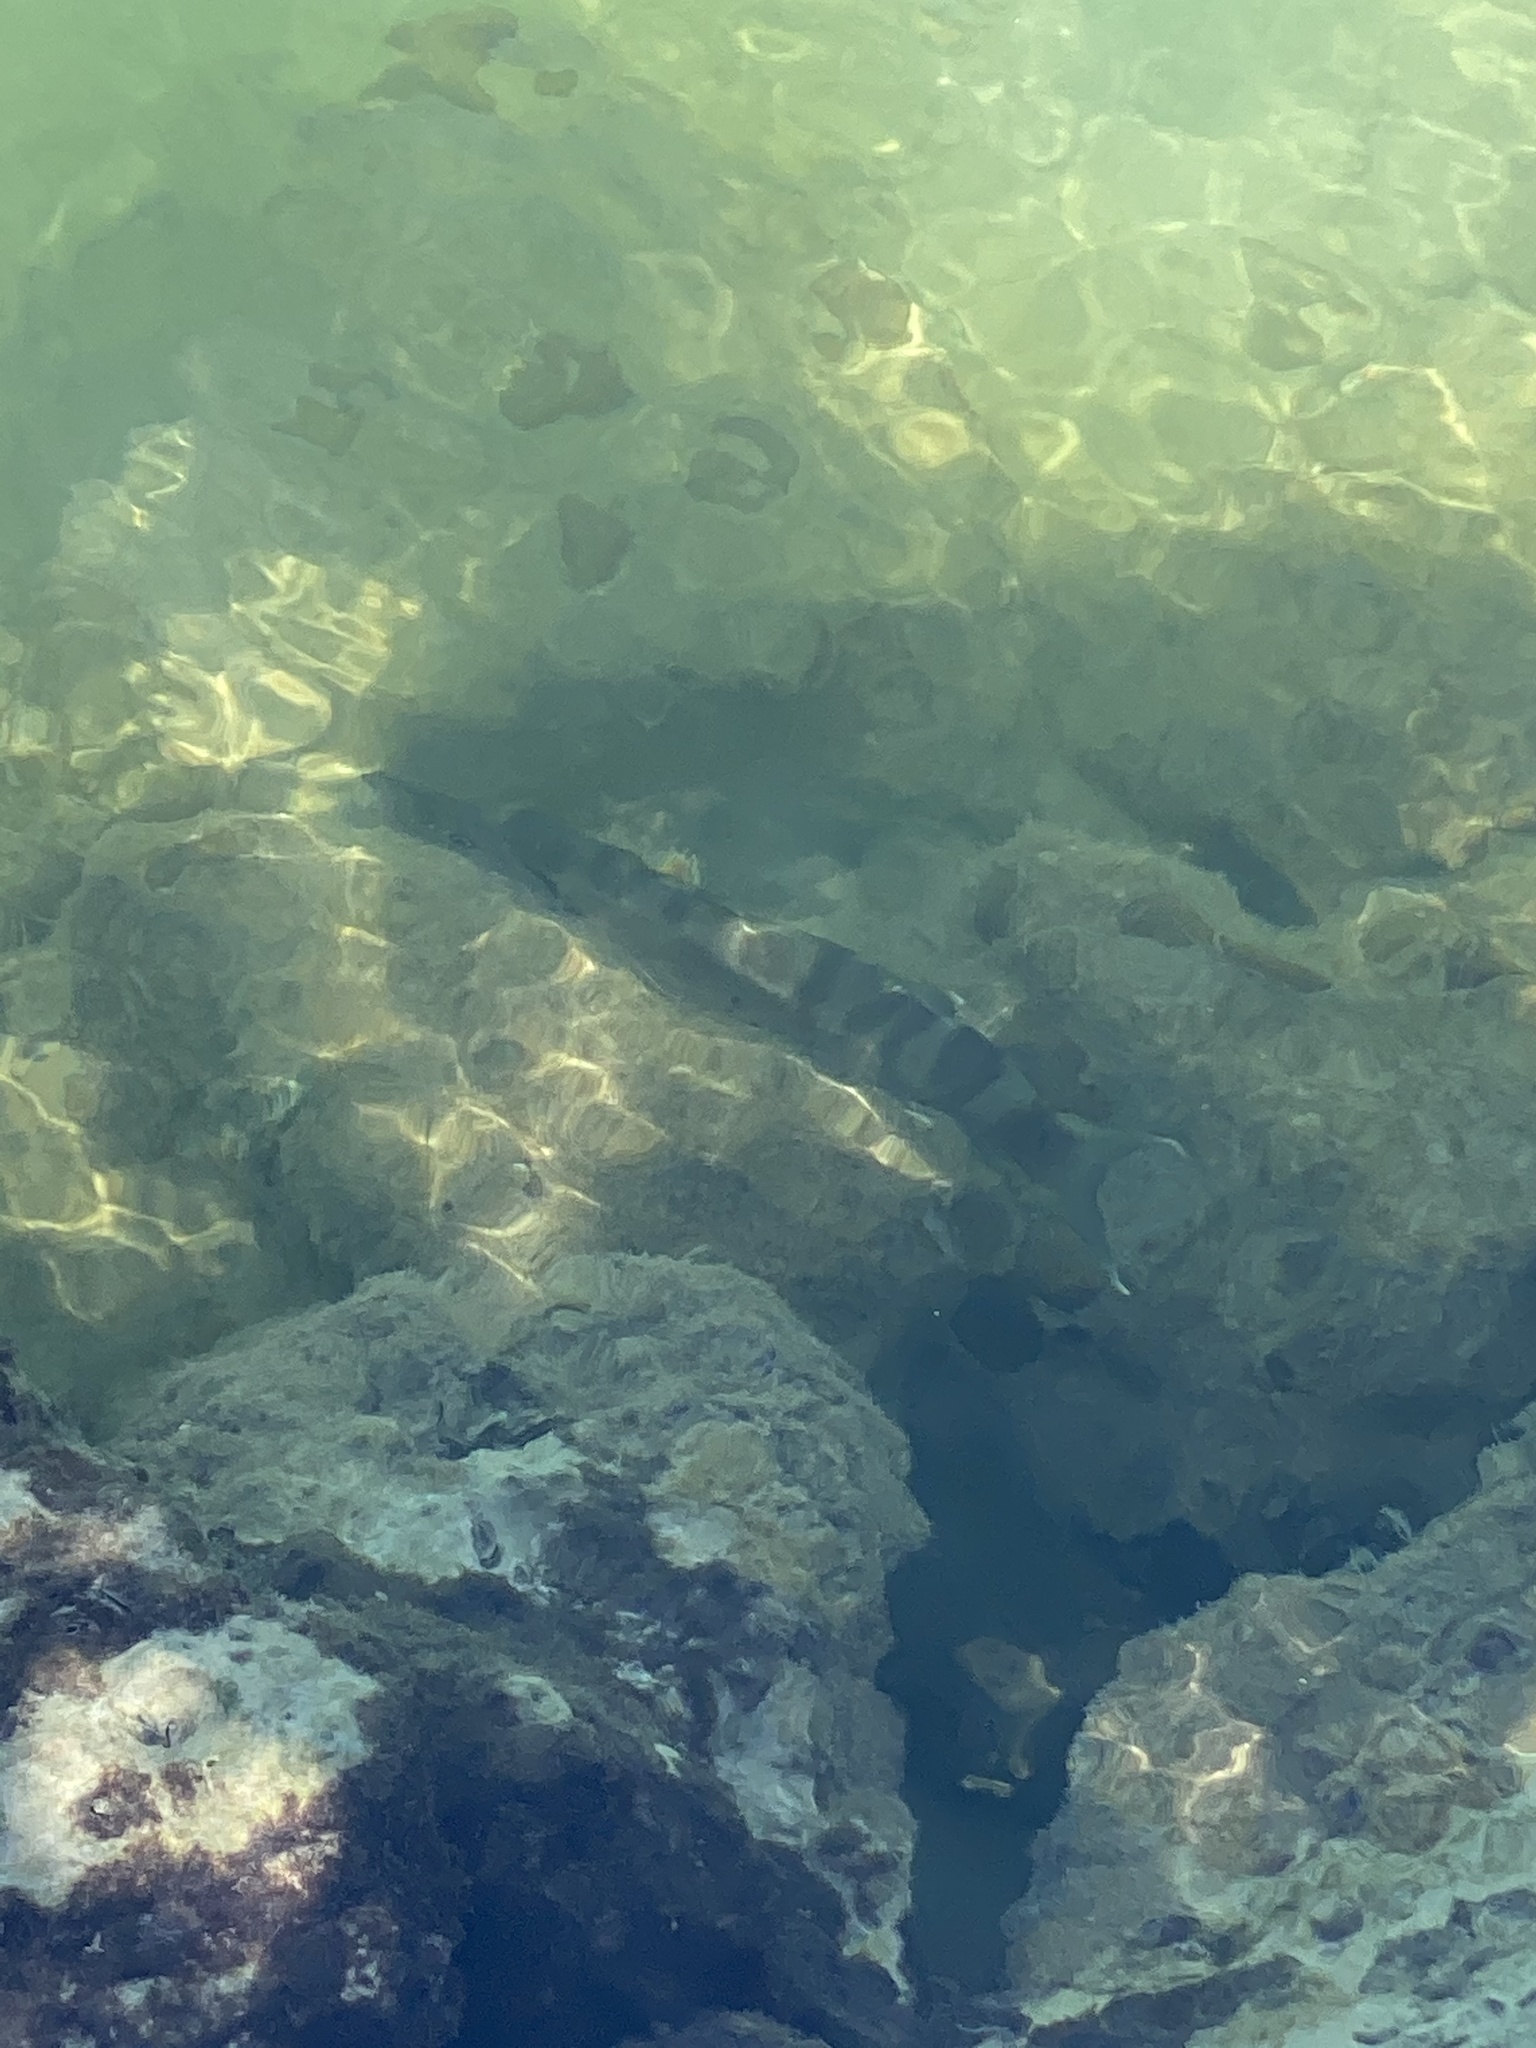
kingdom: Animalia
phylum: Chordata
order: Perciformes
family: Sphyraenidae
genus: Sphyraena
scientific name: Sphyraena barracuda
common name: Great barracuda
